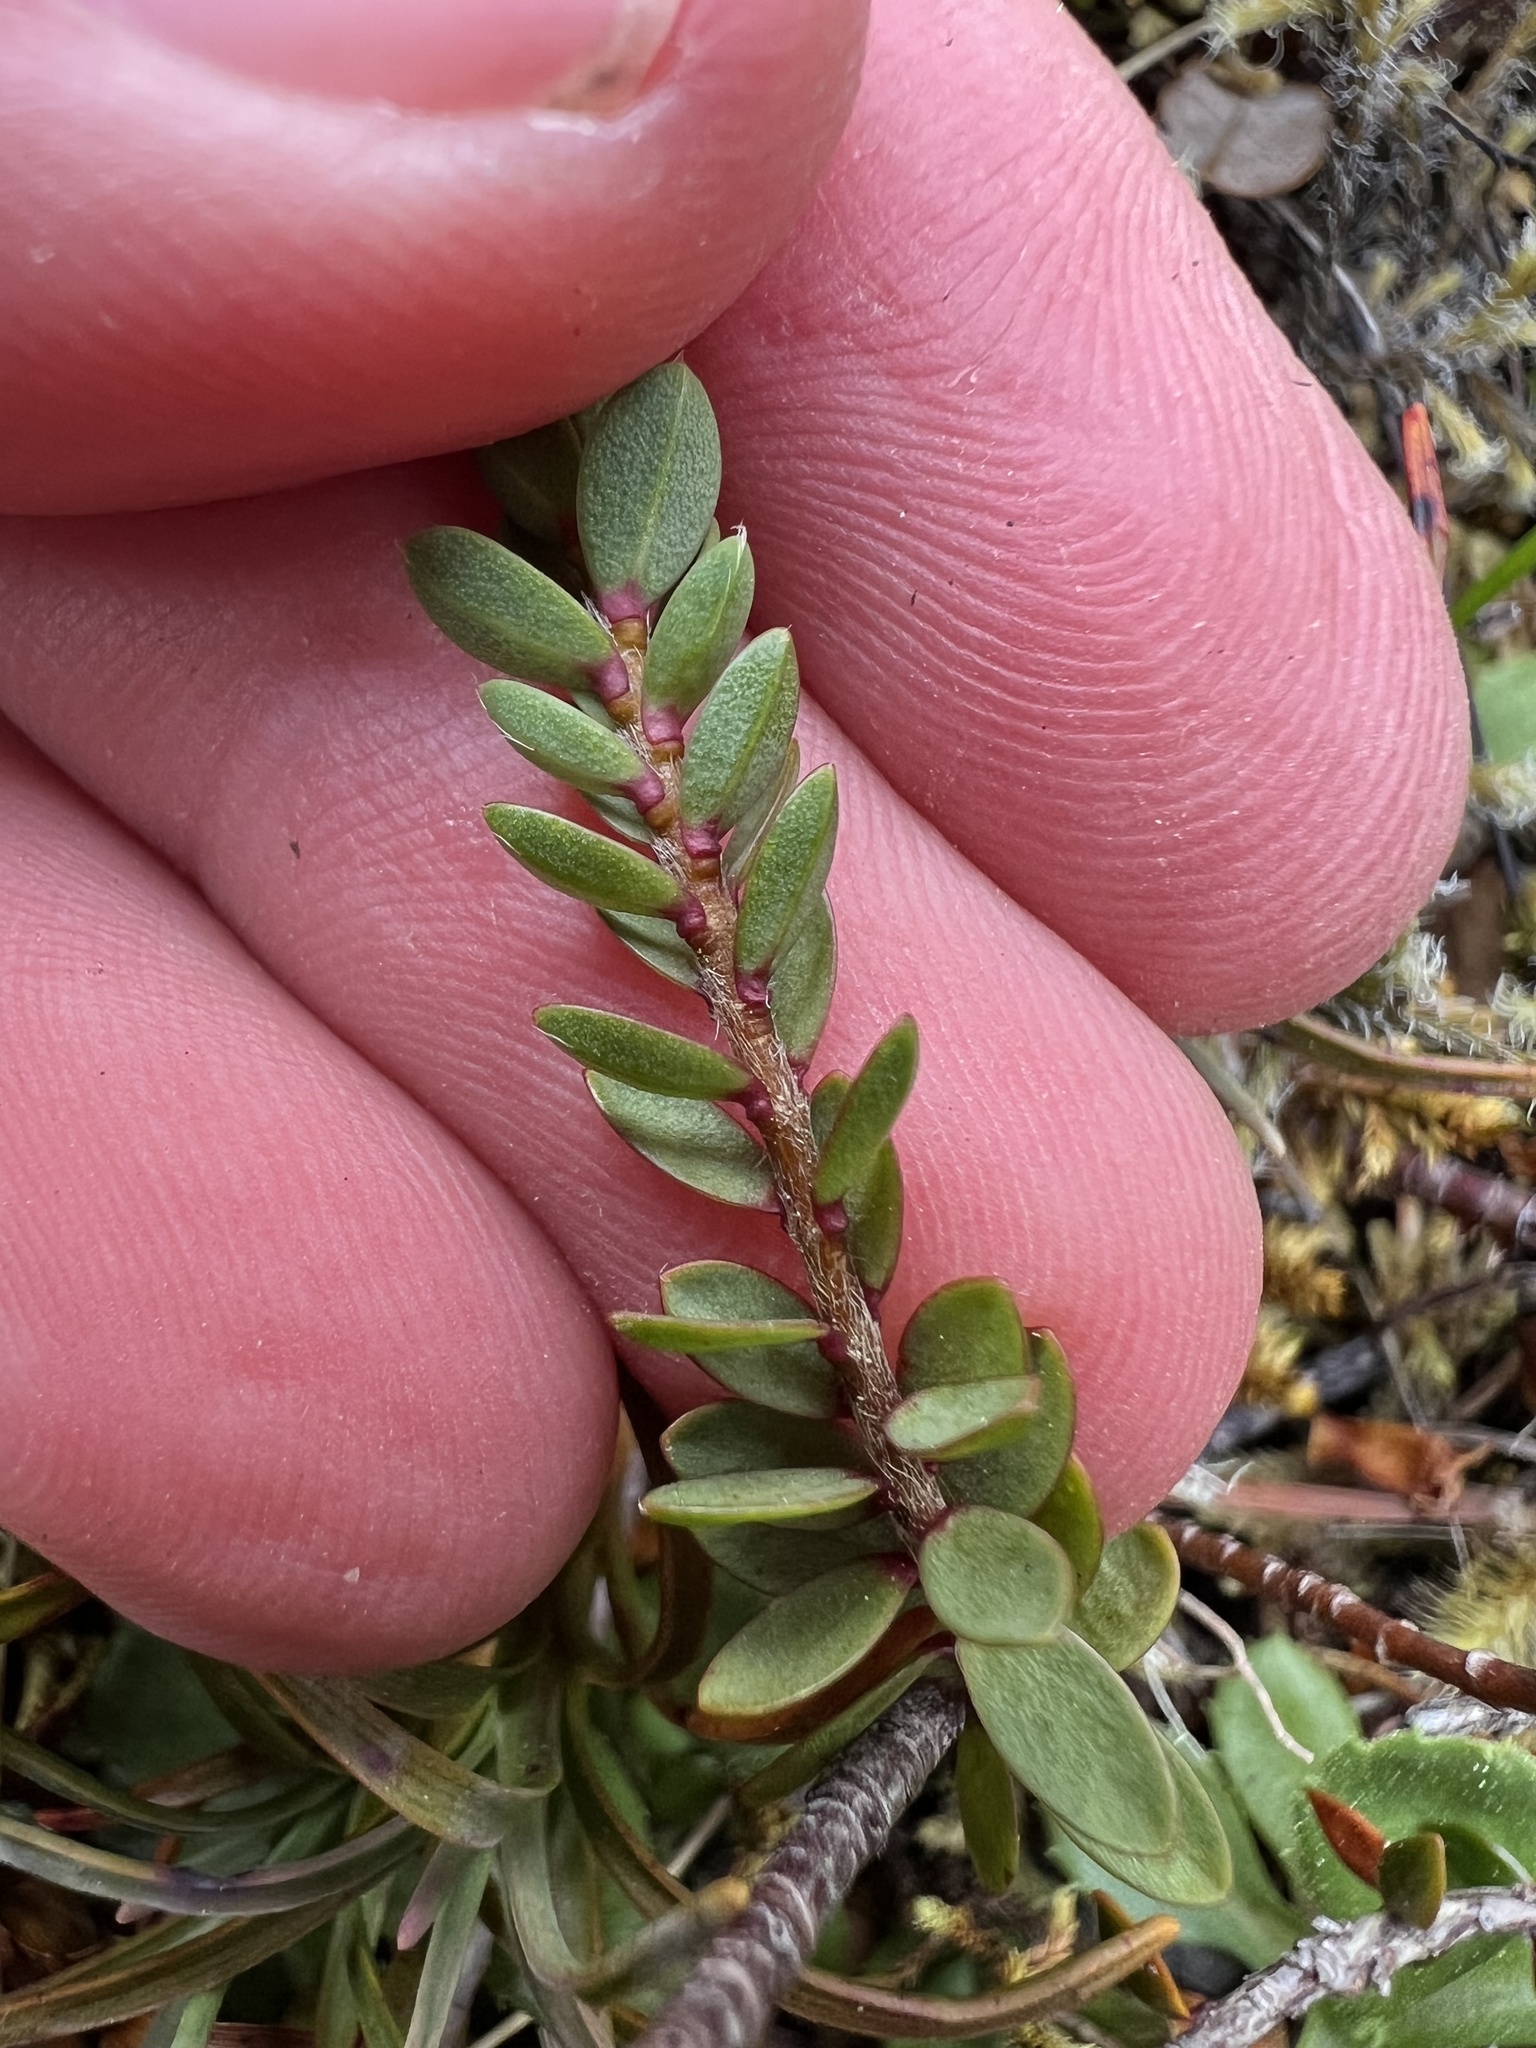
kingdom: Plantae
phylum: Tracheophyta
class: Magnoliopsida
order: Malvales
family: Thymelaeaceae
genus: Pimelea
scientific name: Pimelea prostrata
